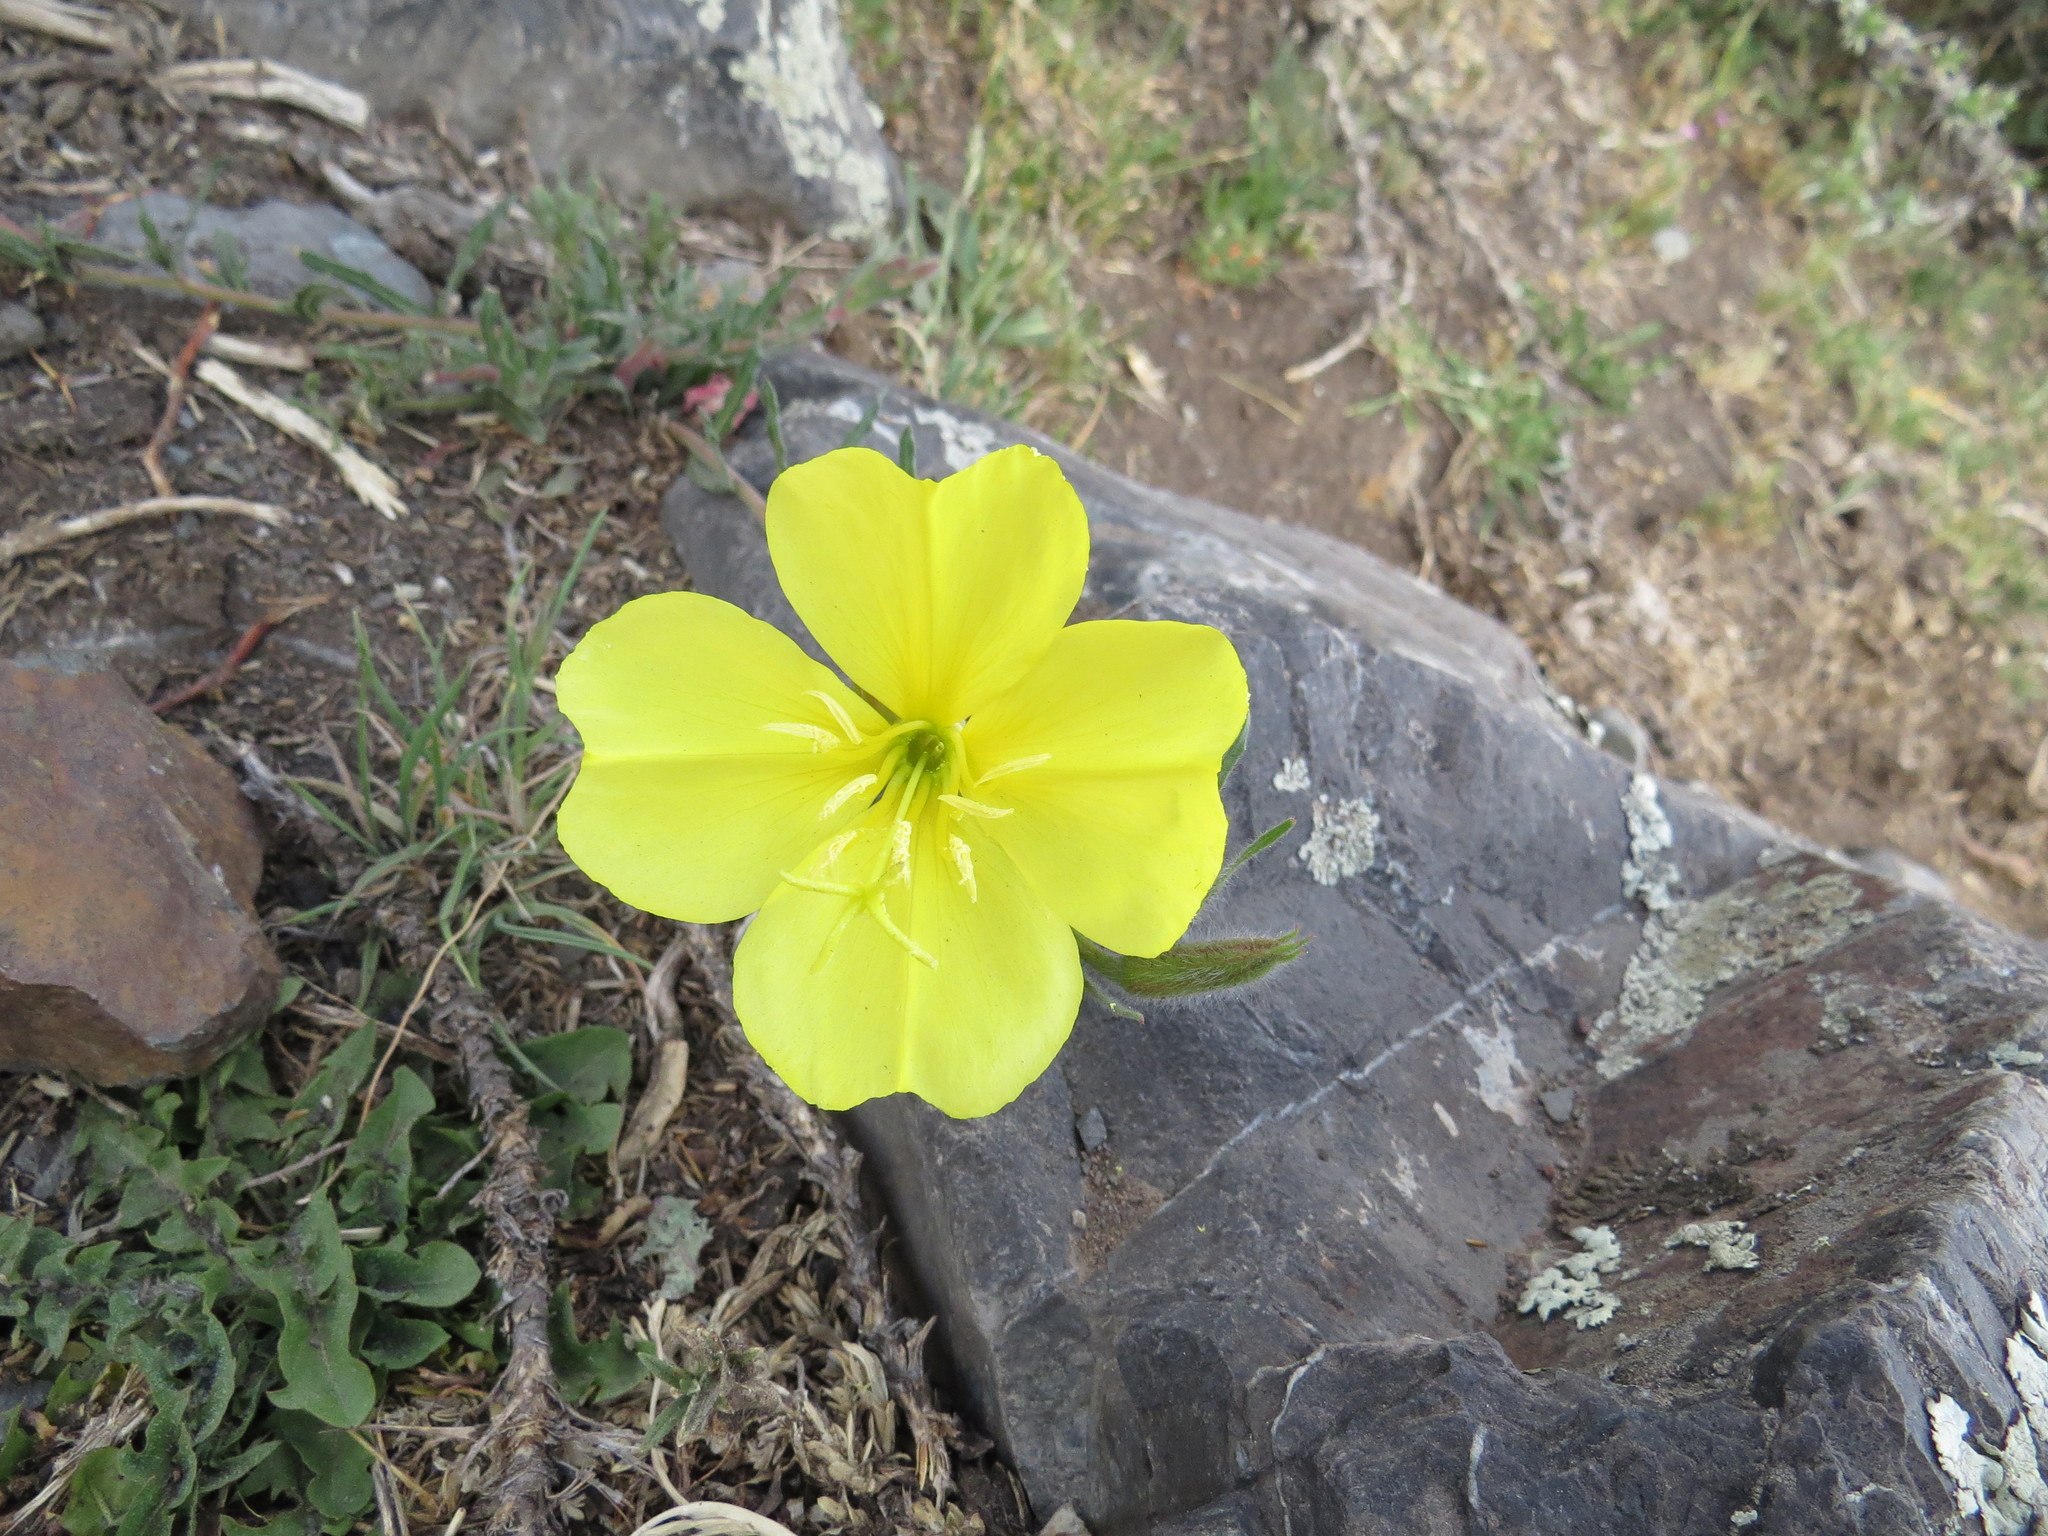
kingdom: Plantae
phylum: Tracheophyta
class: Magnoliopsida
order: Myrtales
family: Onagraceae
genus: Oenothera
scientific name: Oenothera affinis
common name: Longflower evening primrose
